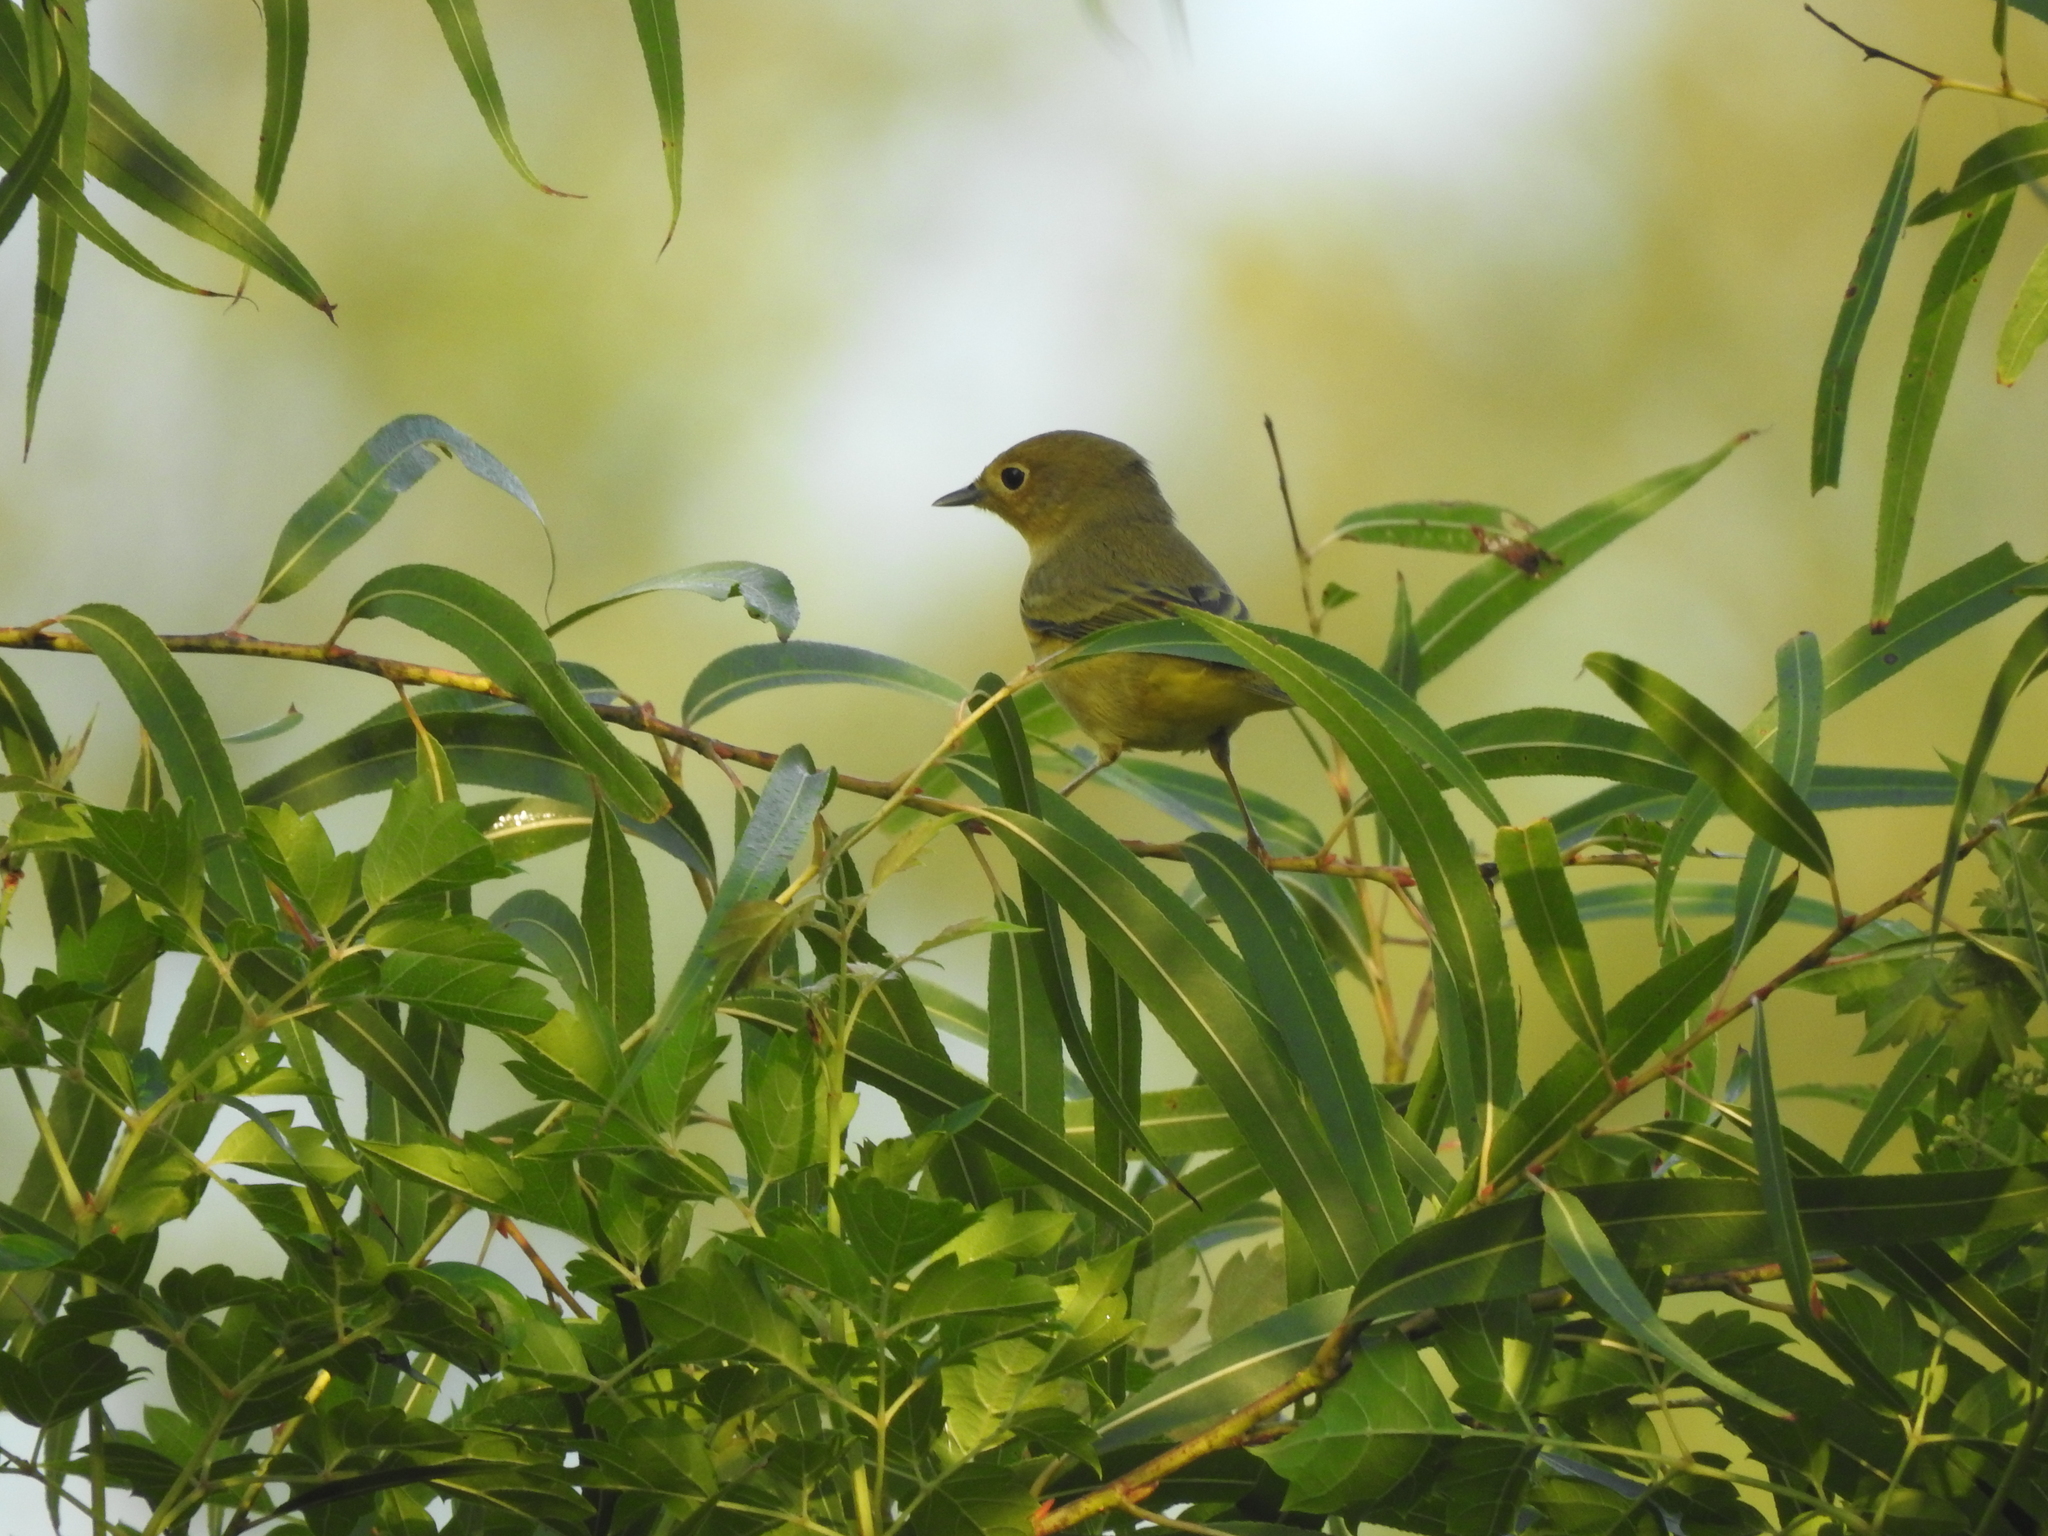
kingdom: Animalia
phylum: Chordata
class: Aves
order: Passeriformes
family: Parulidae
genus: Setophaga
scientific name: Setophaga petechia
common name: Yellow warbler
